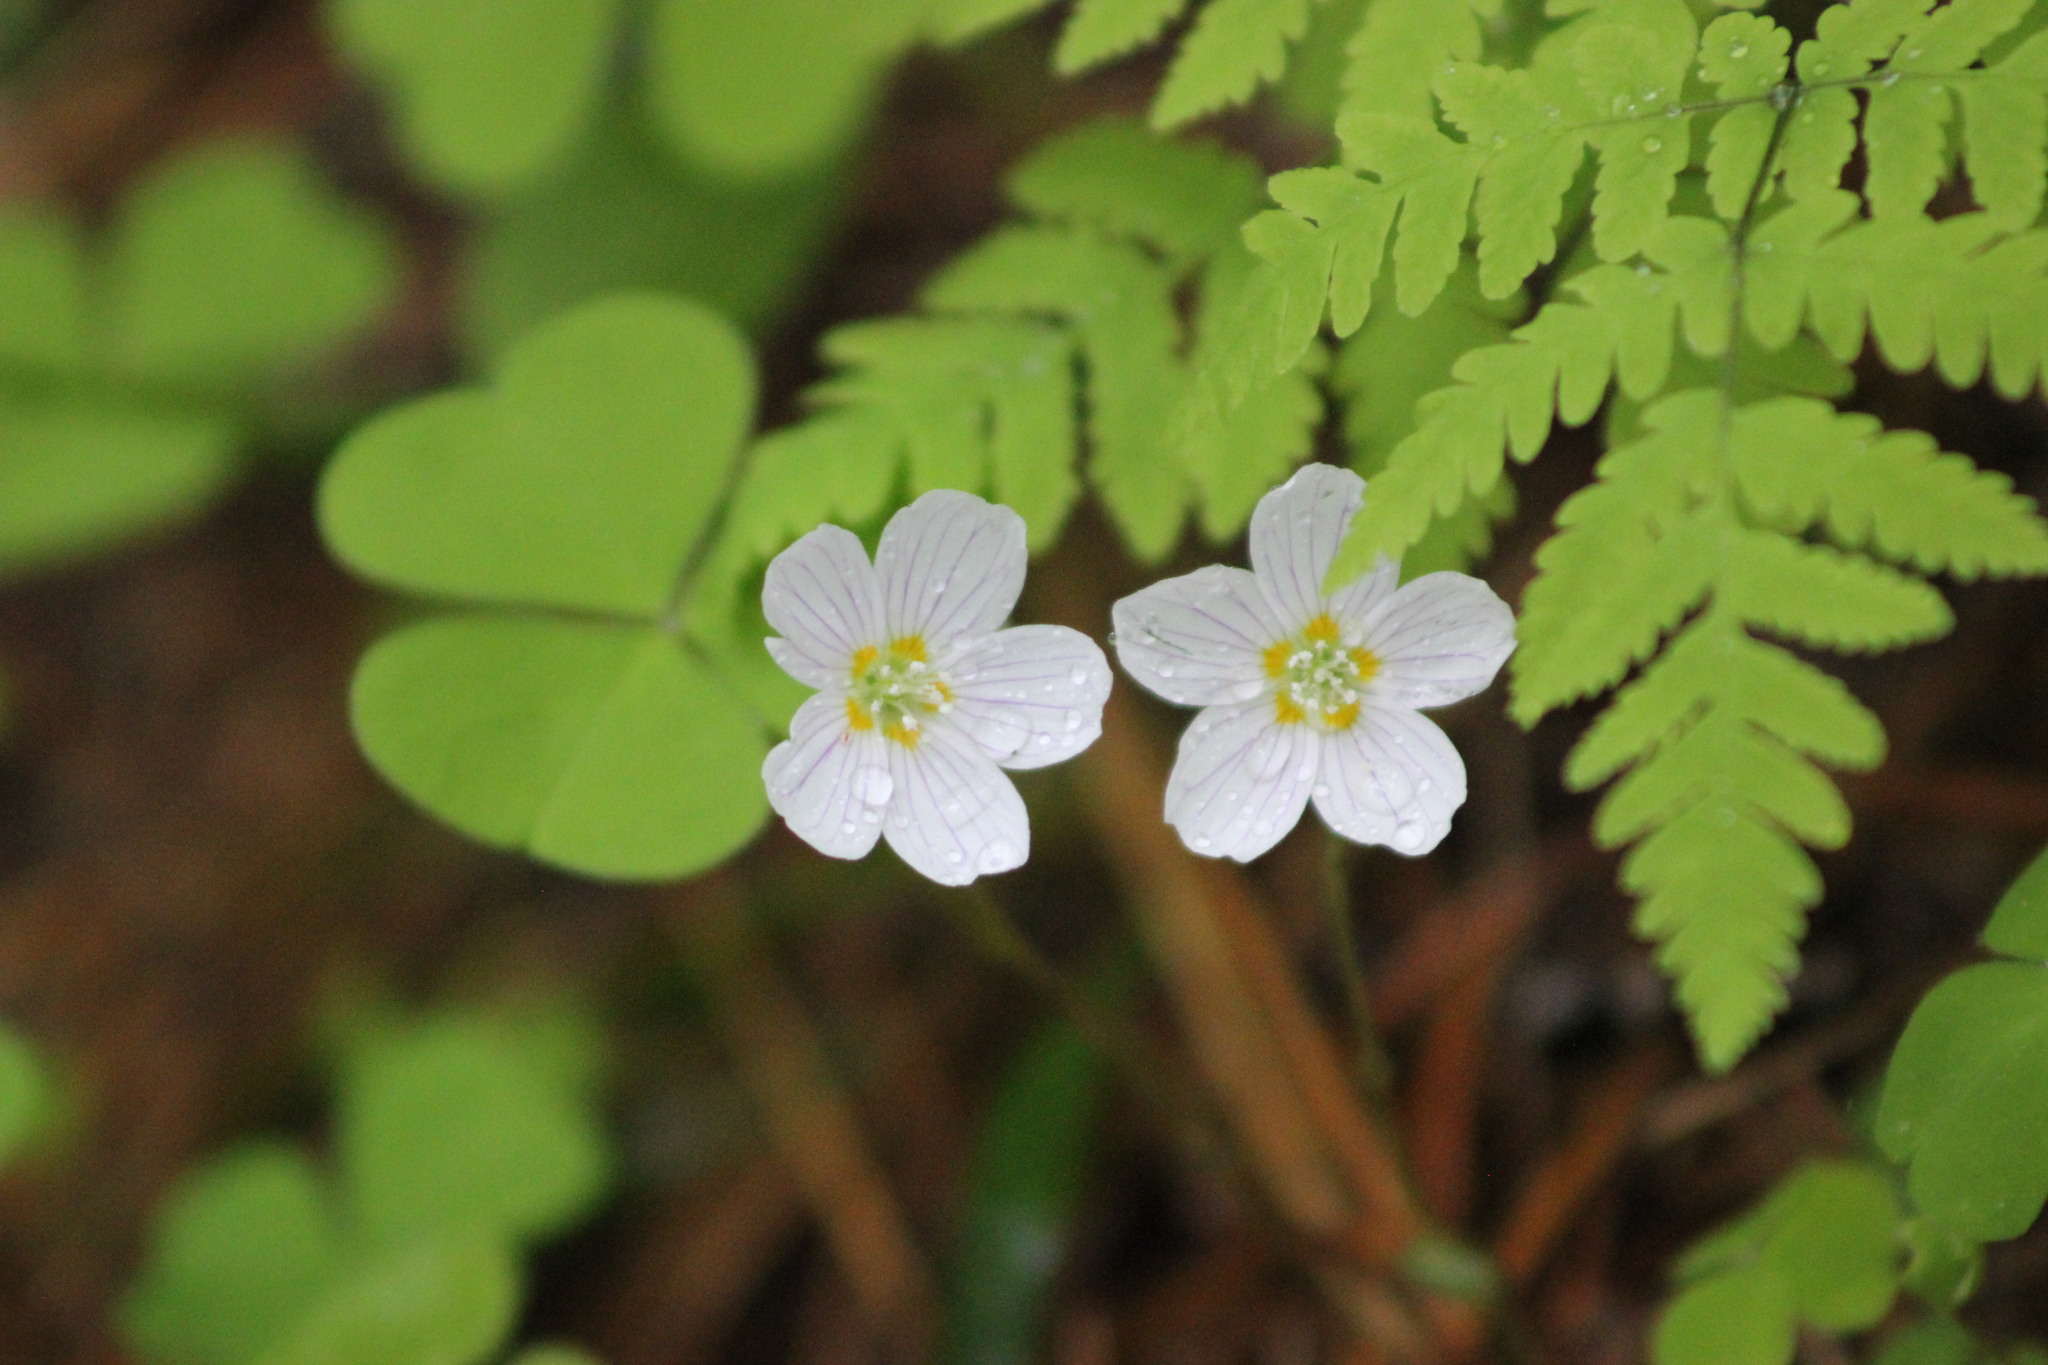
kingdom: Plantae
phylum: Tracheophyta
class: Magnoliopsida
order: Oxalidales
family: Oxalidaceae
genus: Oxalis
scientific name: Oxalis acetosella
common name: Wood-sorrel
